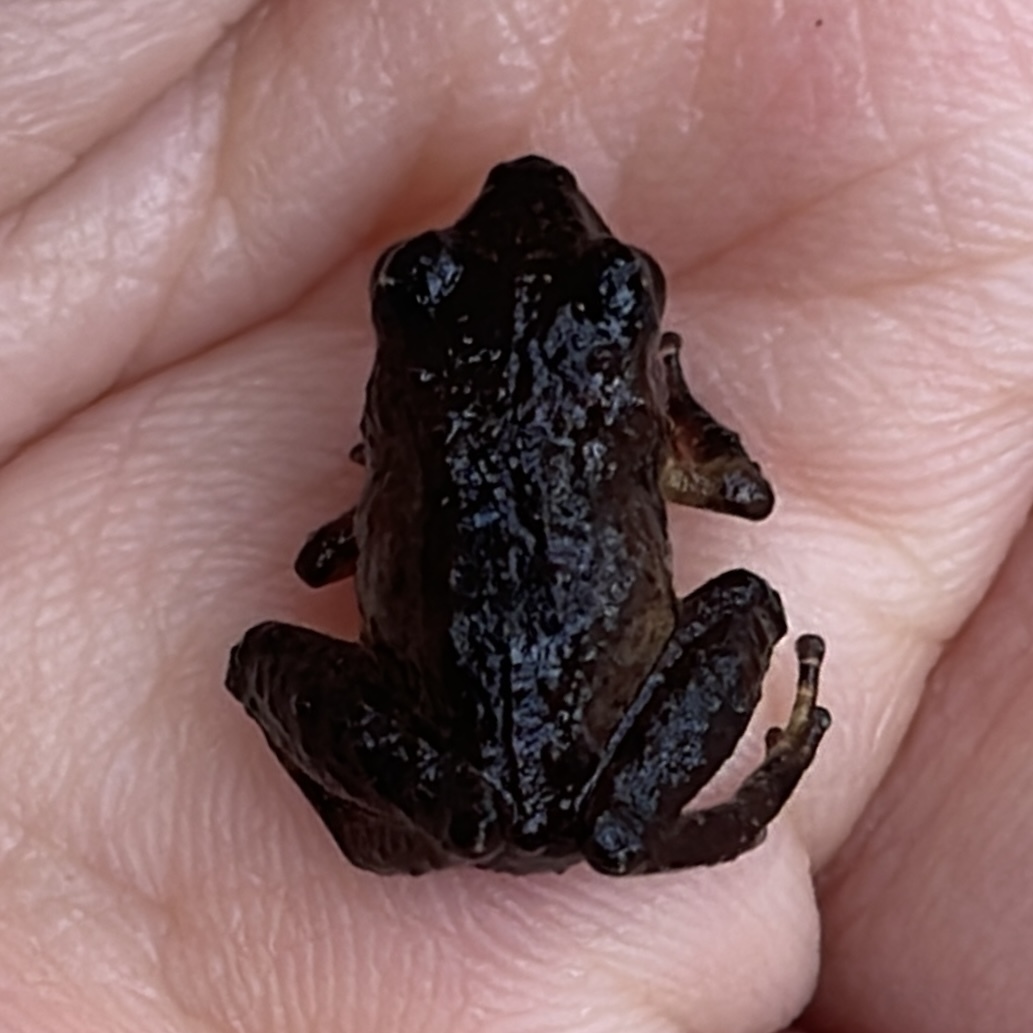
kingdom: Animalia
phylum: Chordata
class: Amphibia
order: Anura
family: Craugastoridae
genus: Pristimantis
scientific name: Pristimantis urichi
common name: Lesser antilles robber frog
